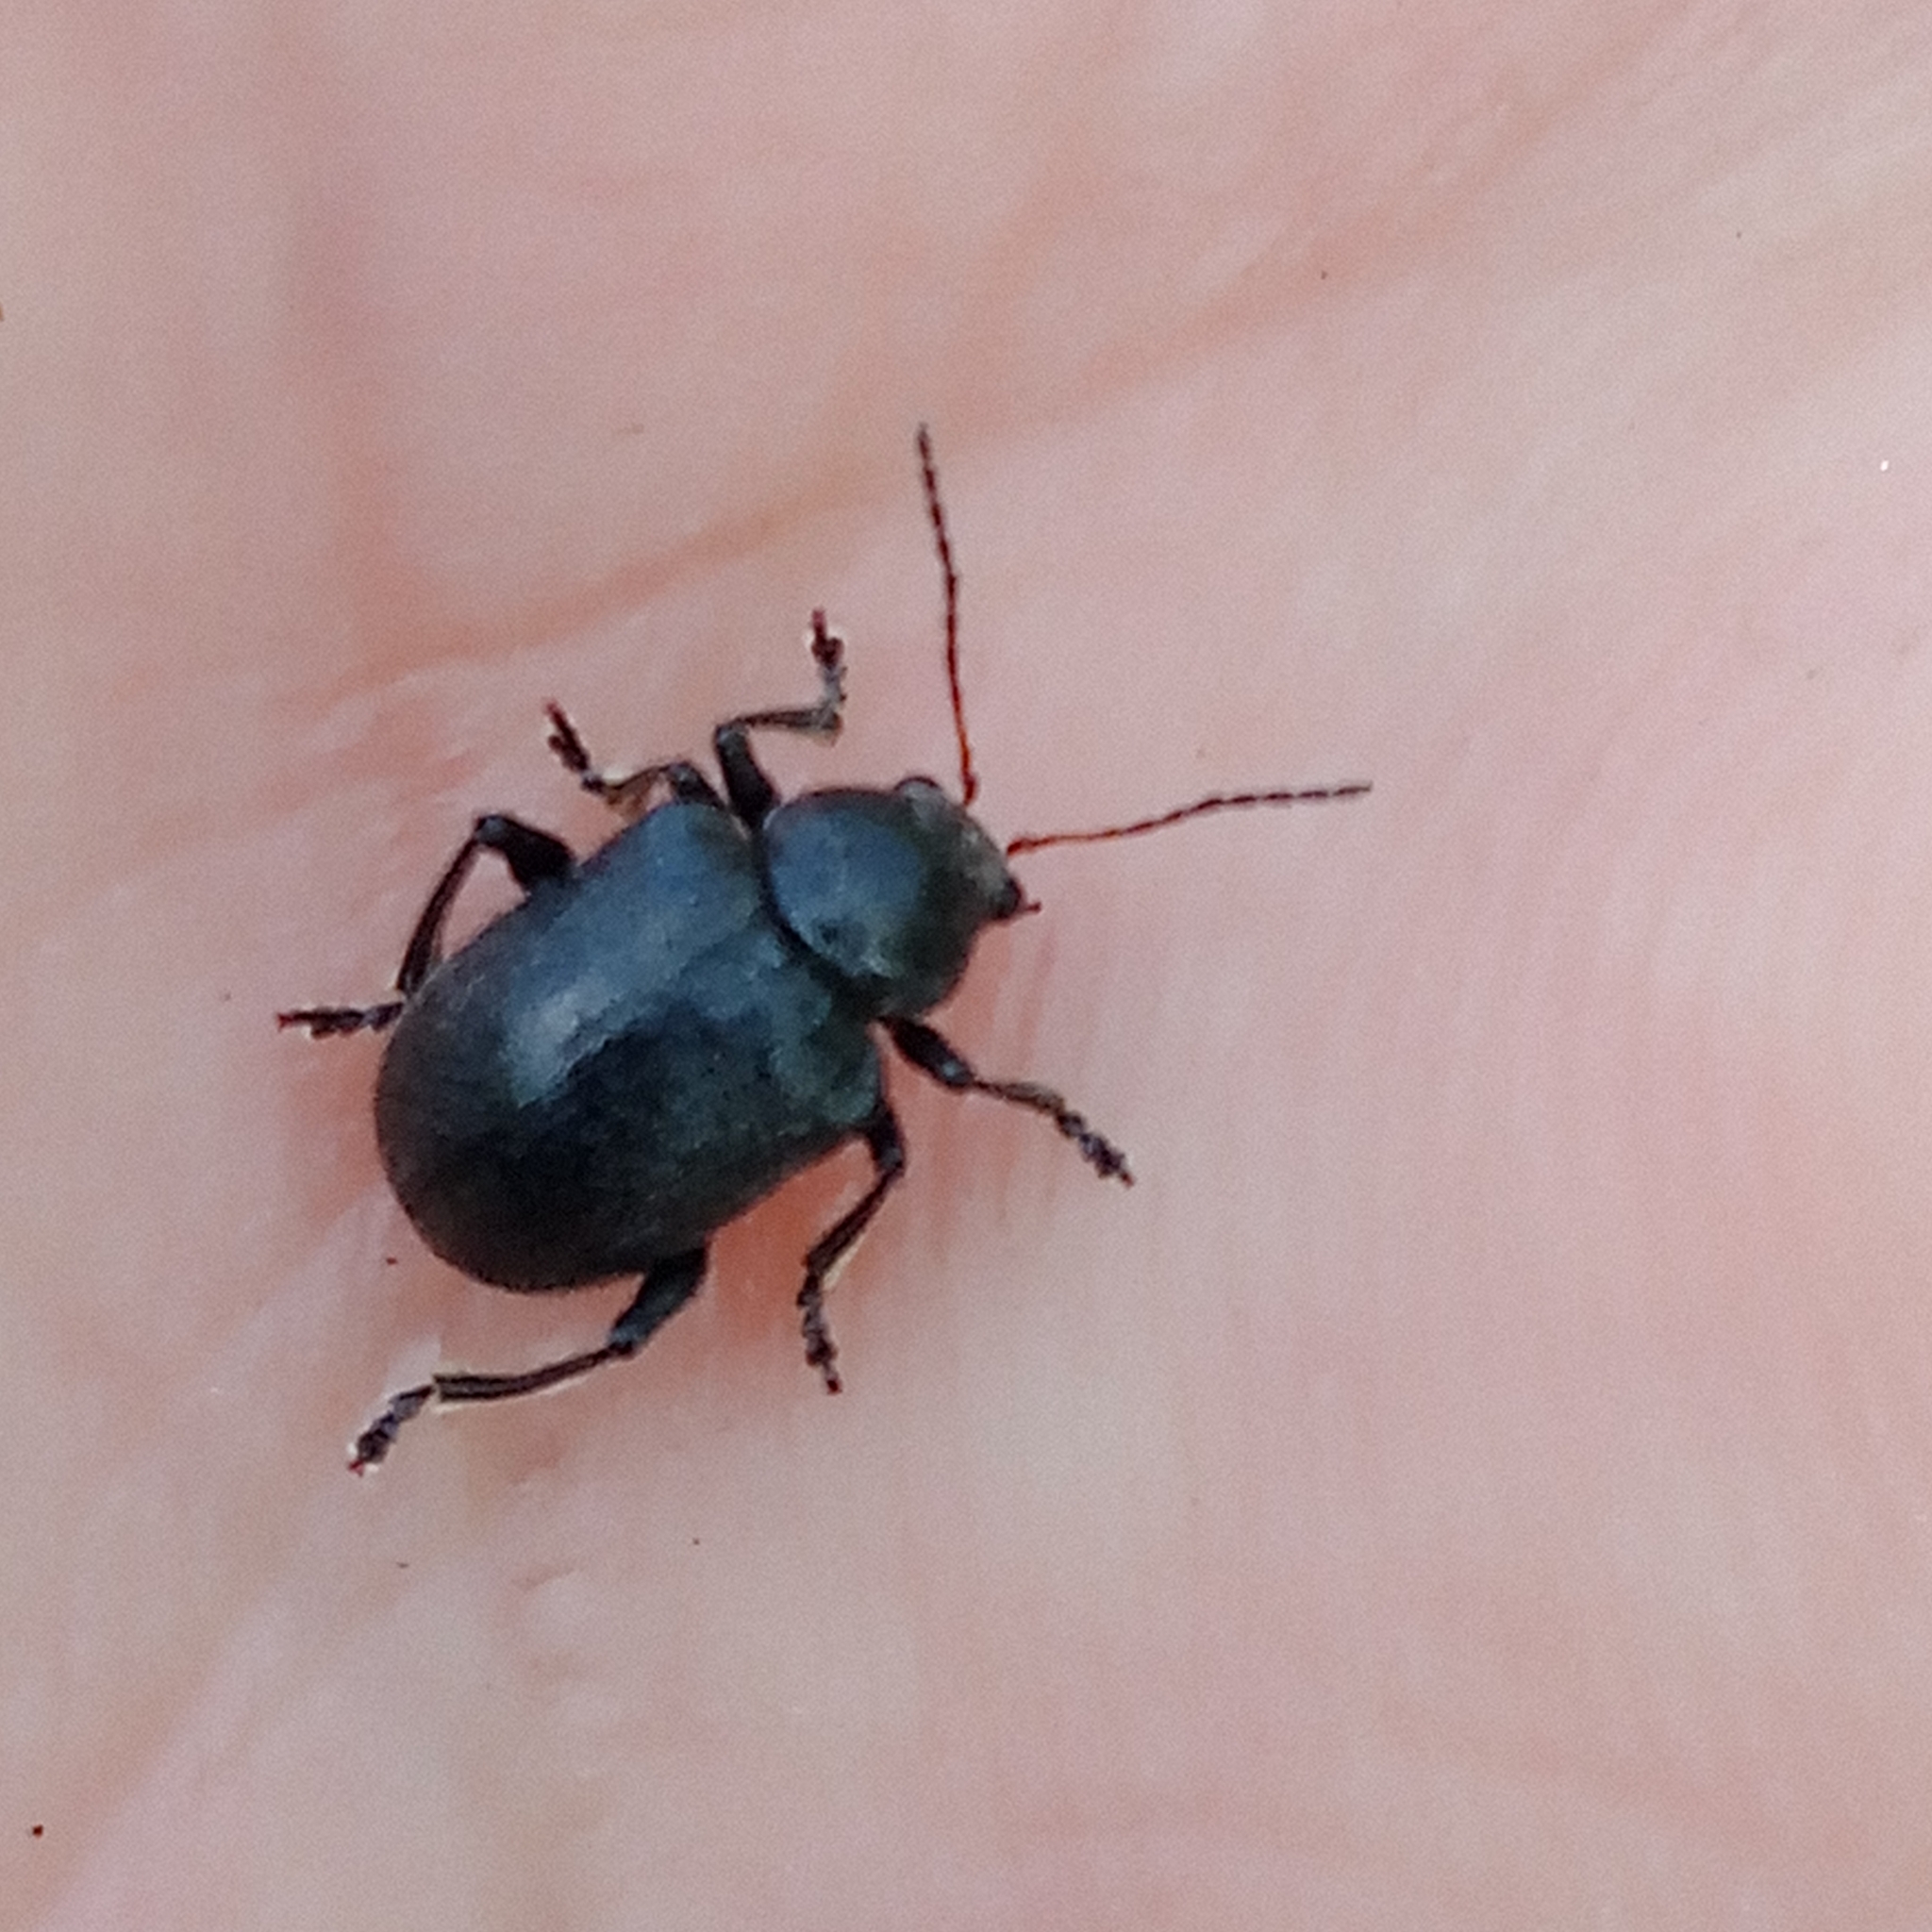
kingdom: Animalia
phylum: Arthropoda
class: Insecta
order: Coleoptera
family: Chrysomelidae
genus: Bromius
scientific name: Bromius obscurus
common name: Western grape rootworm
